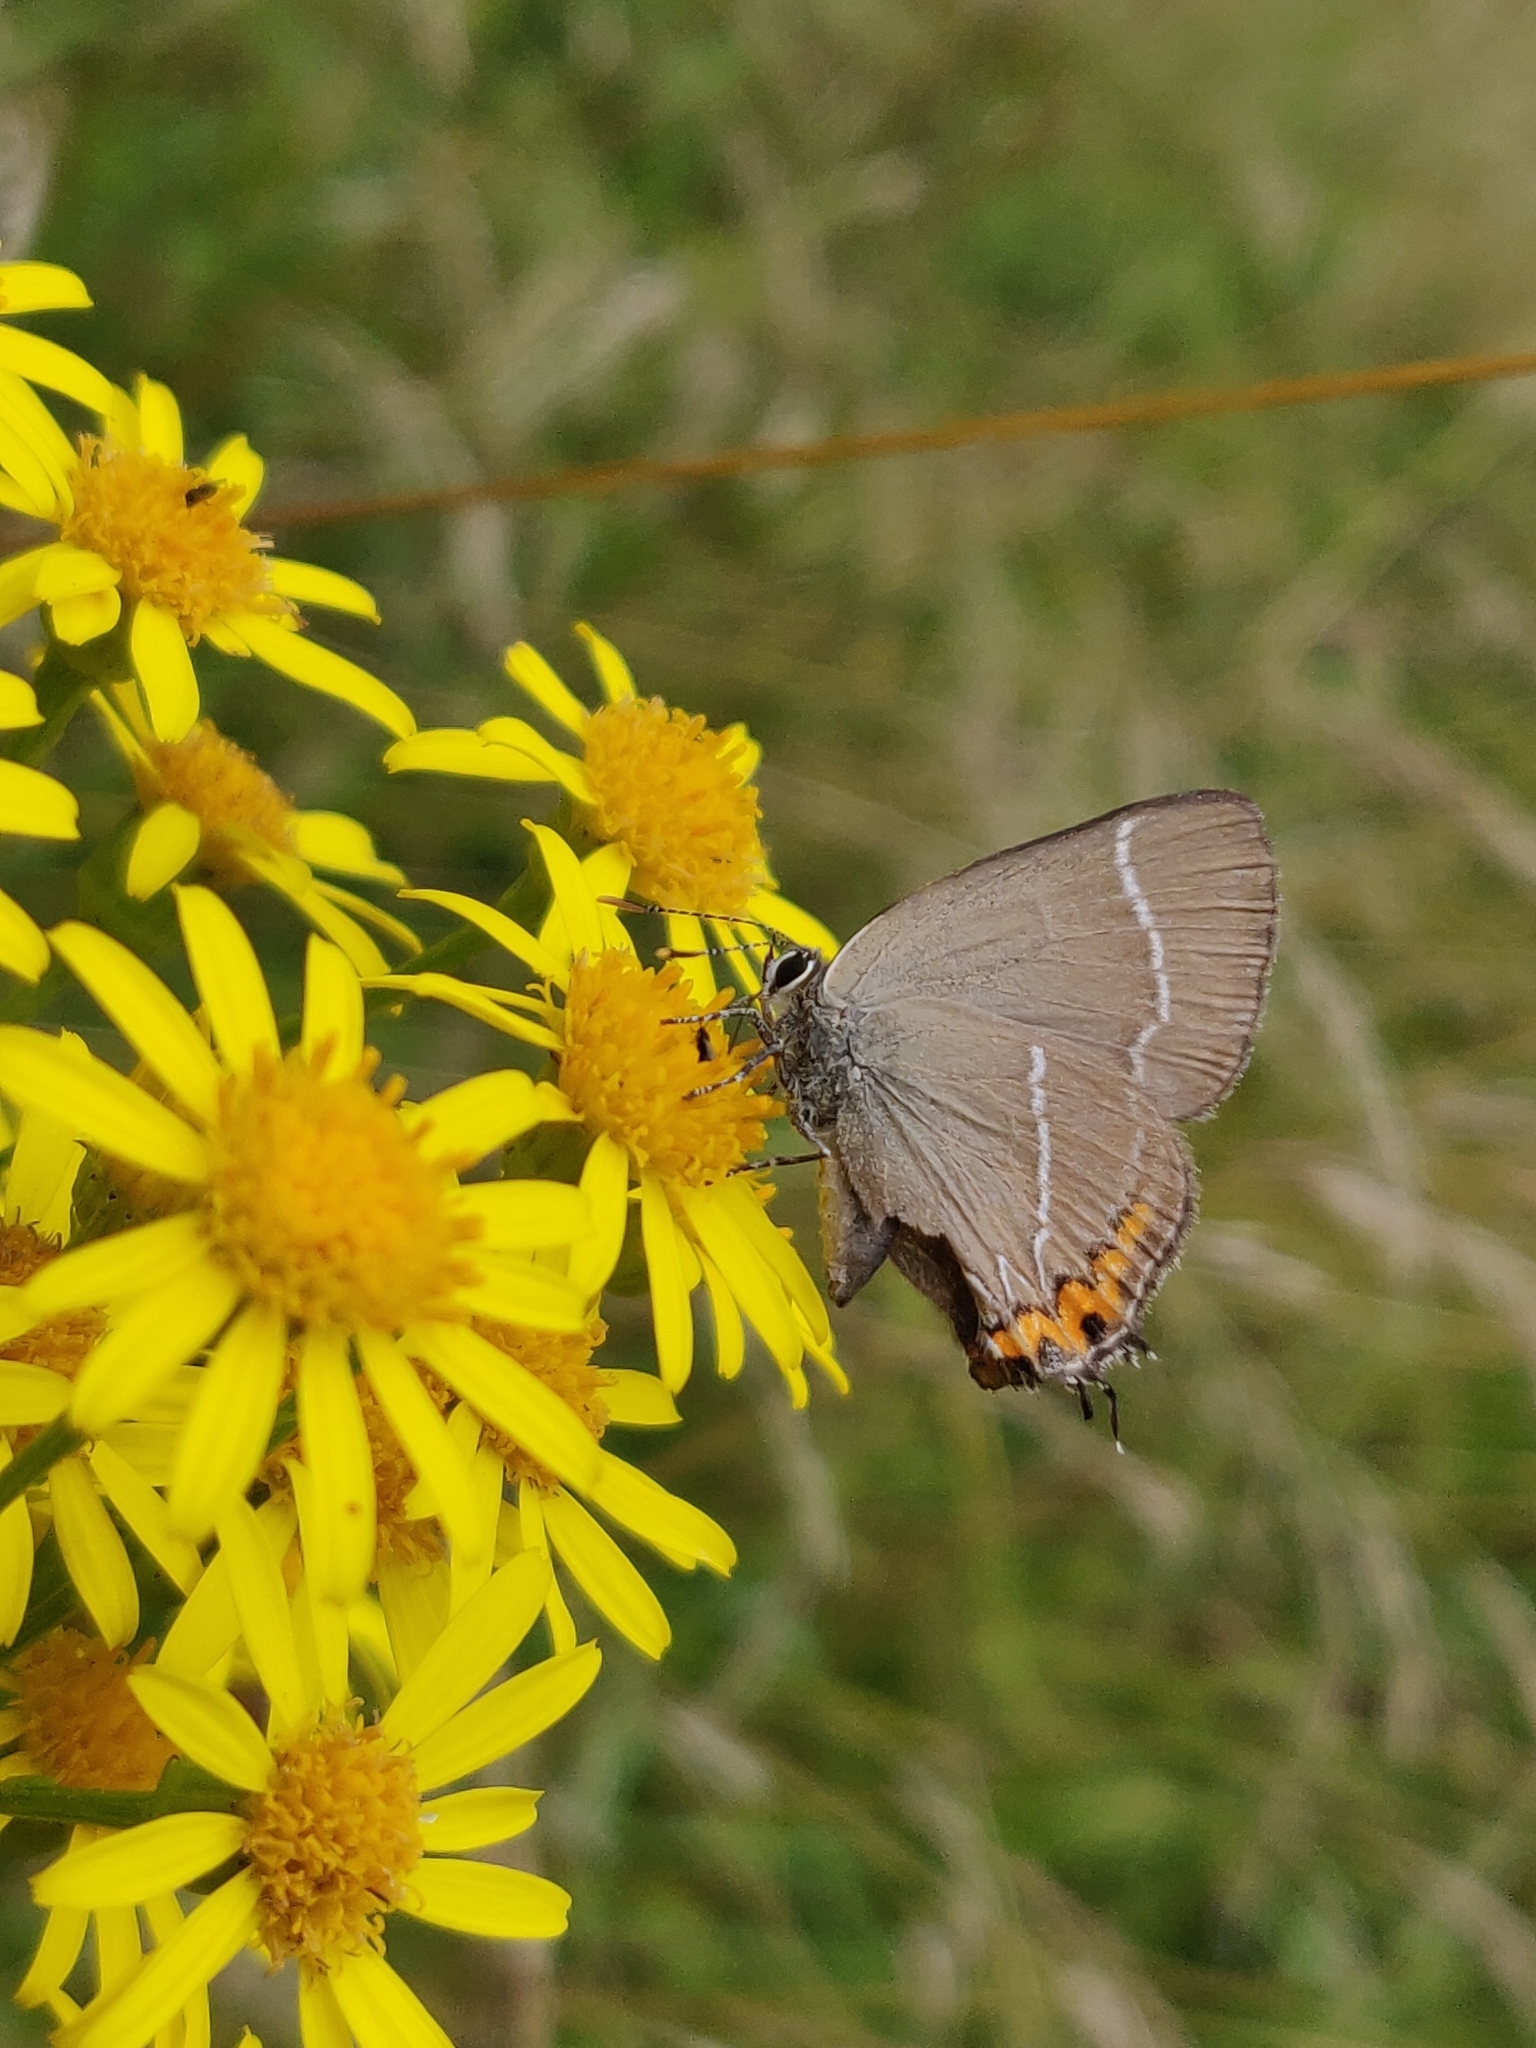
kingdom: Animalia
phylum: Arthropoda
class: Insecta
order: Lepidoptera
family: Lycaenidae
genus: Satyrium
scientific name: Satyrium w-album
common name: White-letter hairstreak
